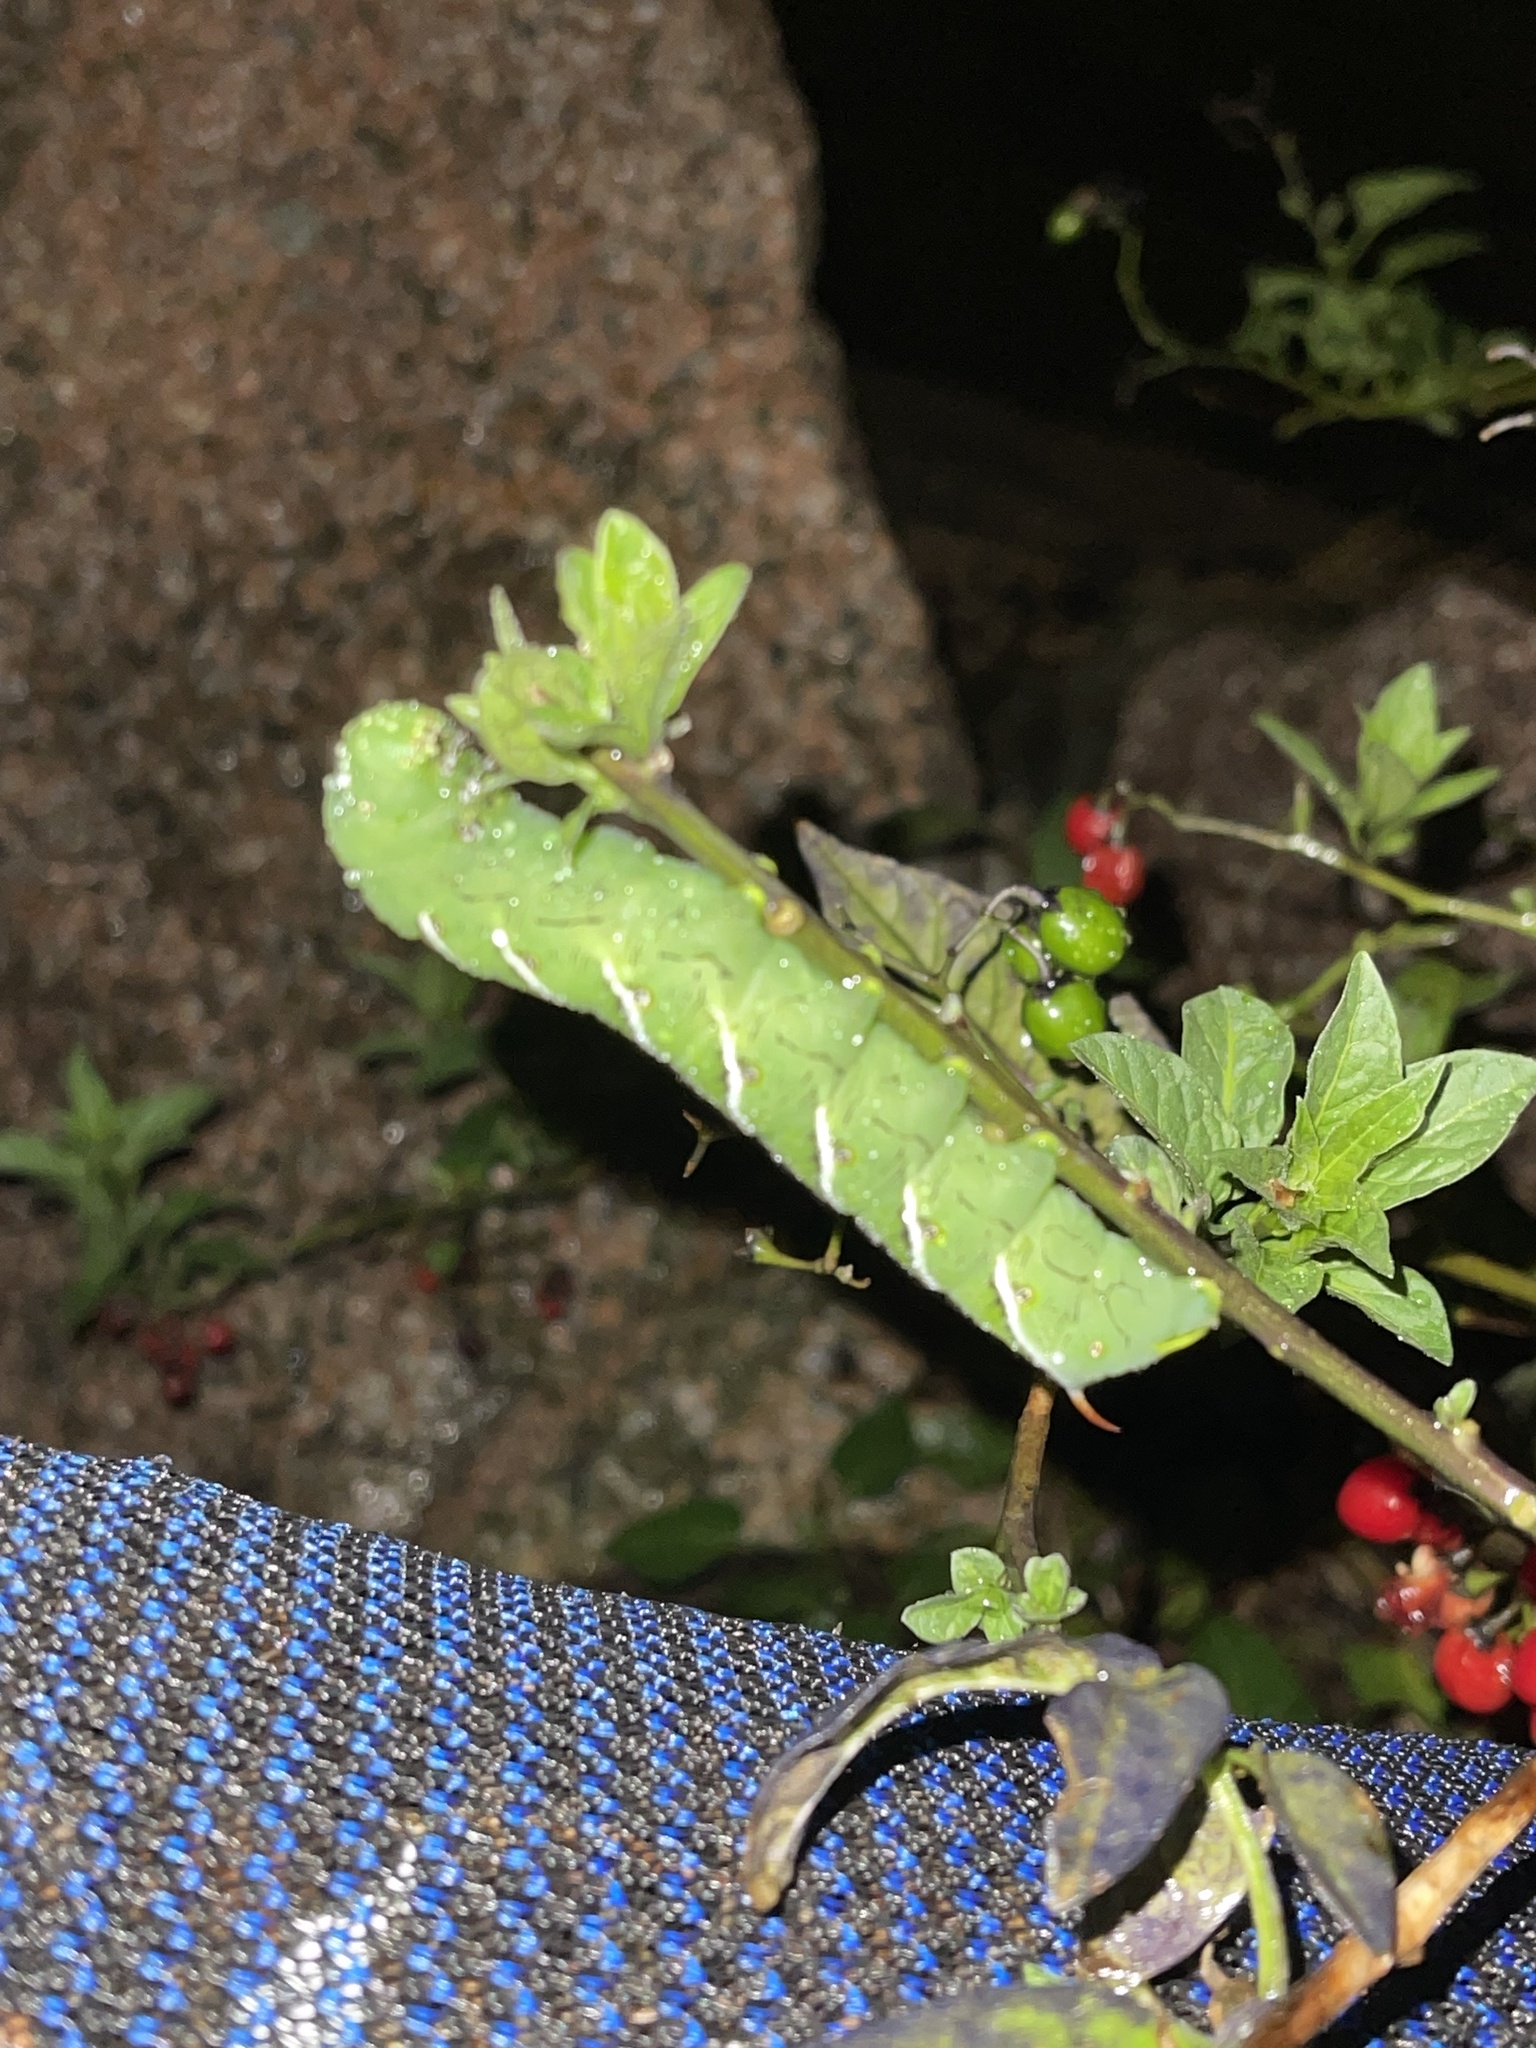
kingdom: Animalia
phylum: Arthropoda
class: Insecta
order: Lepidoptera
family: Sphingidae
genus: Manduca
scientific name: Manduca sexta
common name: Carolina sphinx
